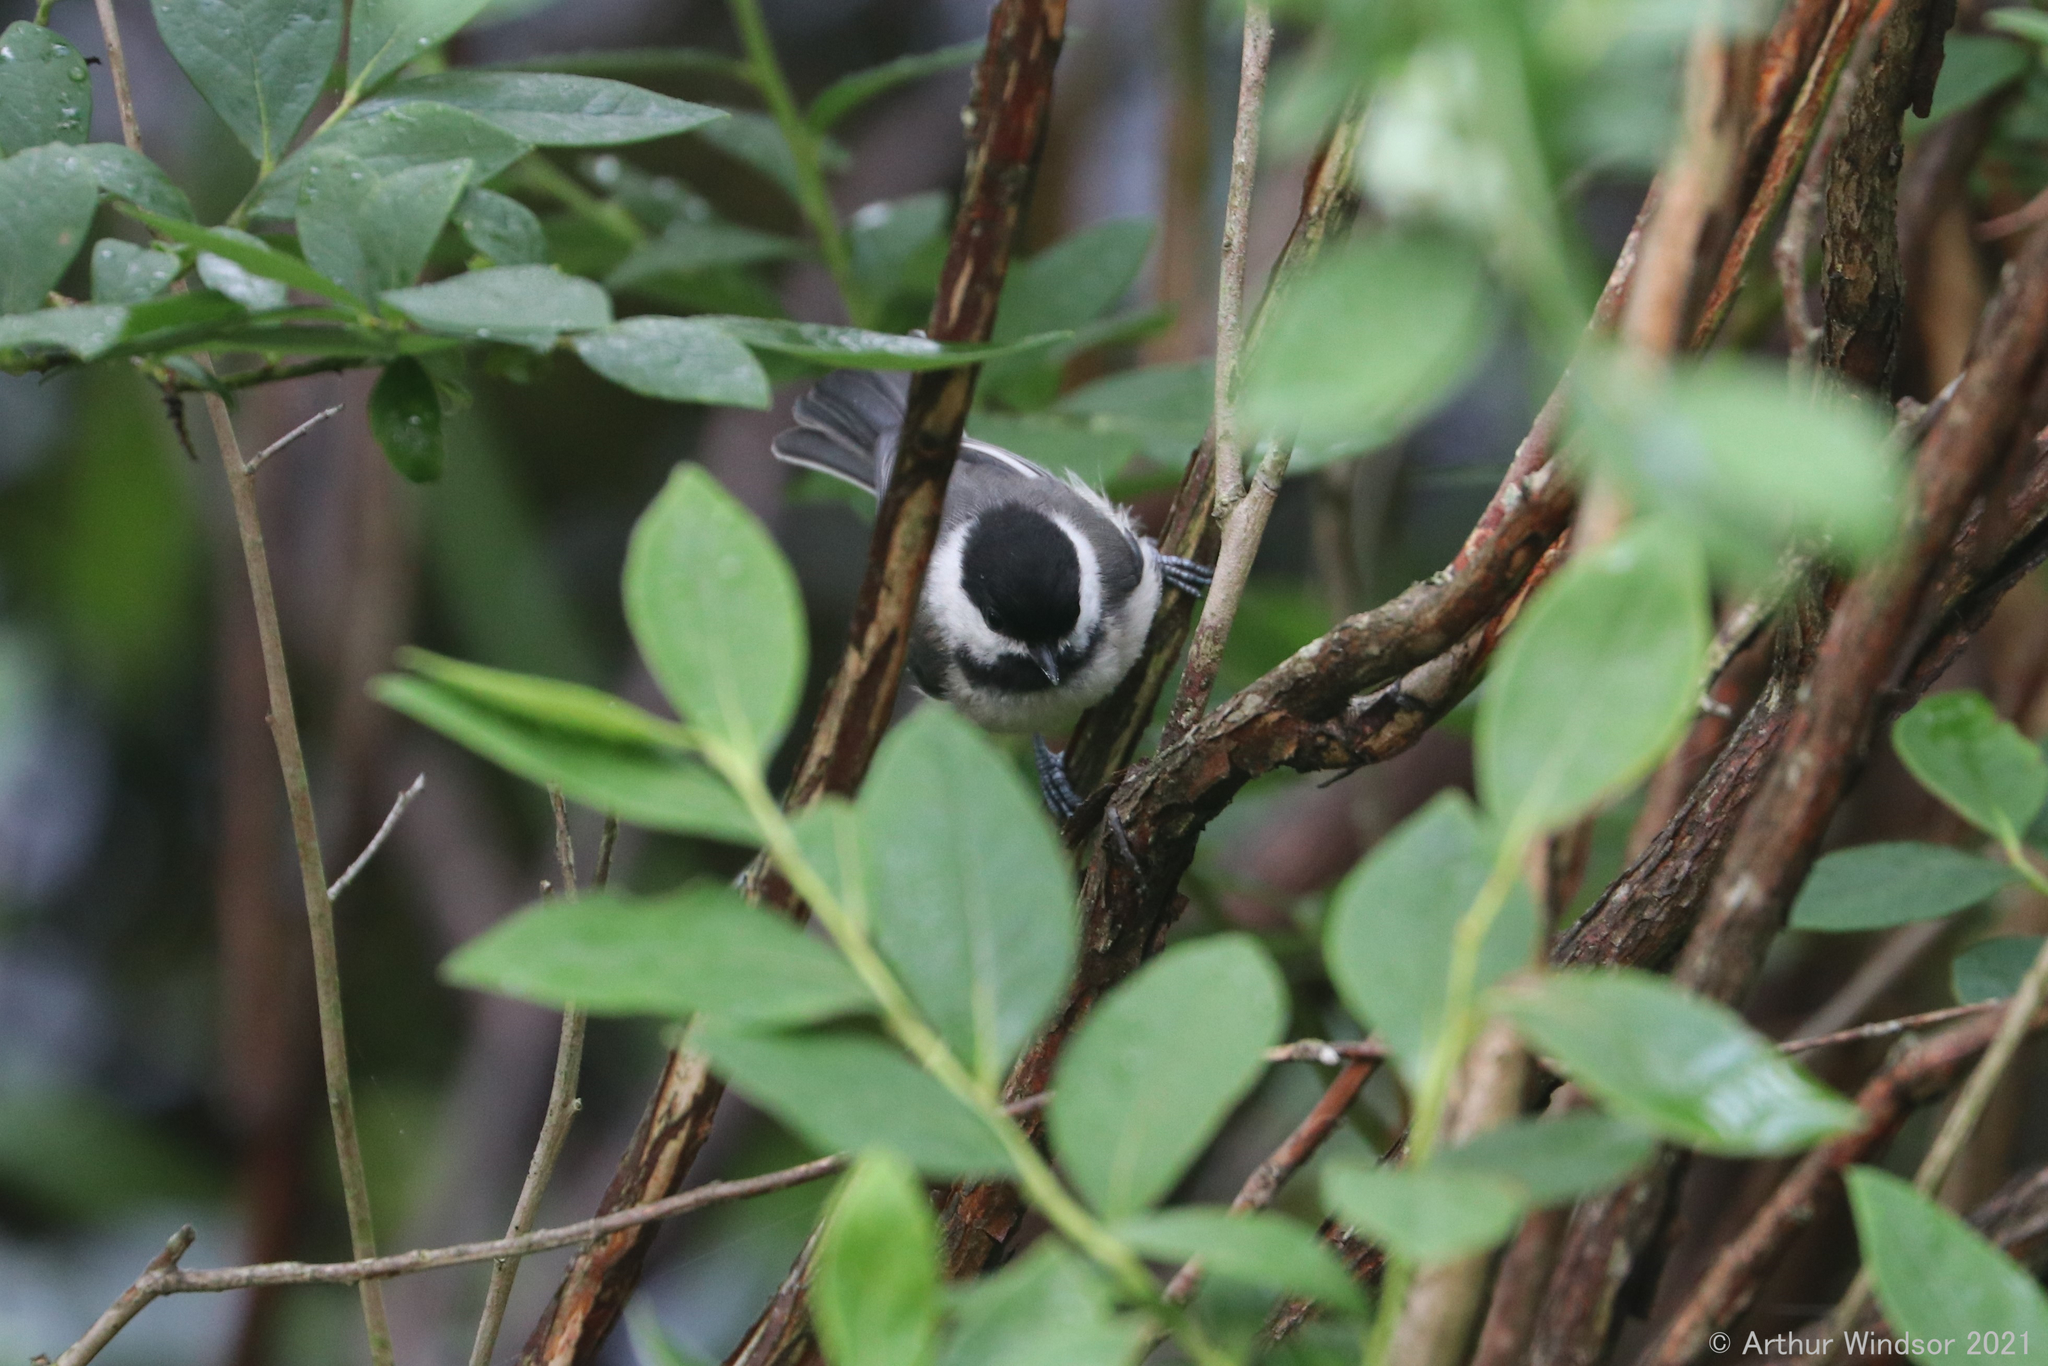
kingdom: Animalia
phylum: Chordata
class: Aves
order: Passeriformes
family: Paridae
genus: Poecile
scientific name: Poecile atricapillus
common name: Black-capped chickadee
